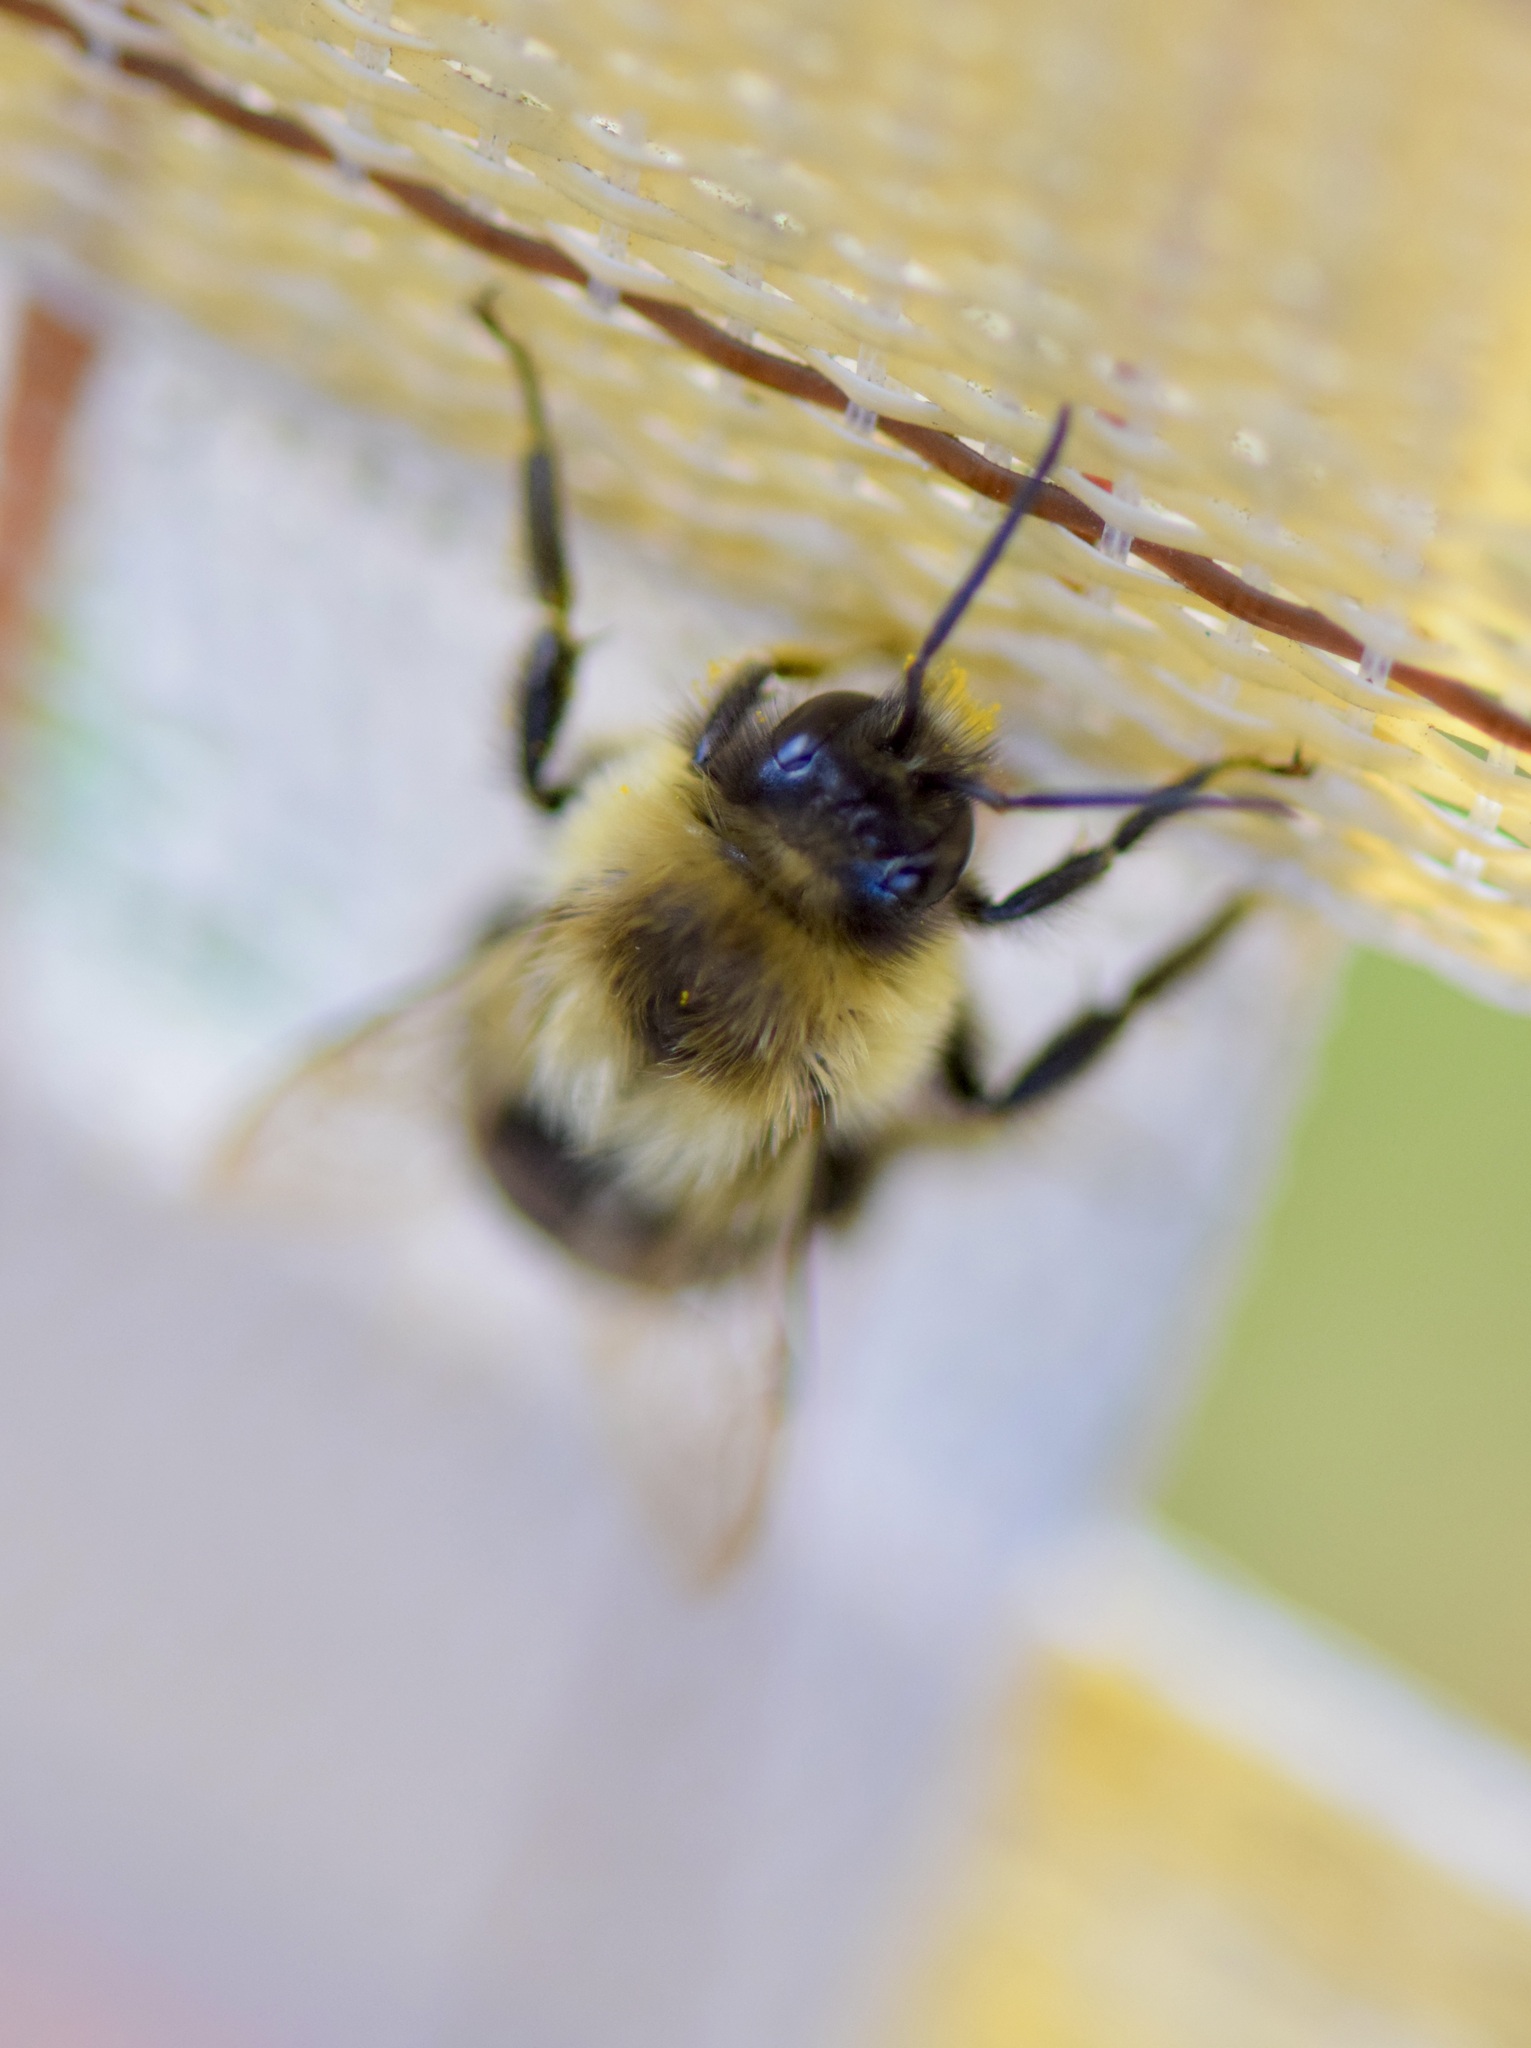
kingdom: Animalia
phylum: Arthropoda
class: Insecta
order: Hymenoptera
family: Apidae
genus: Bombus
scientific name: Bombus impatiens
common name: Common eastern bumble bee
